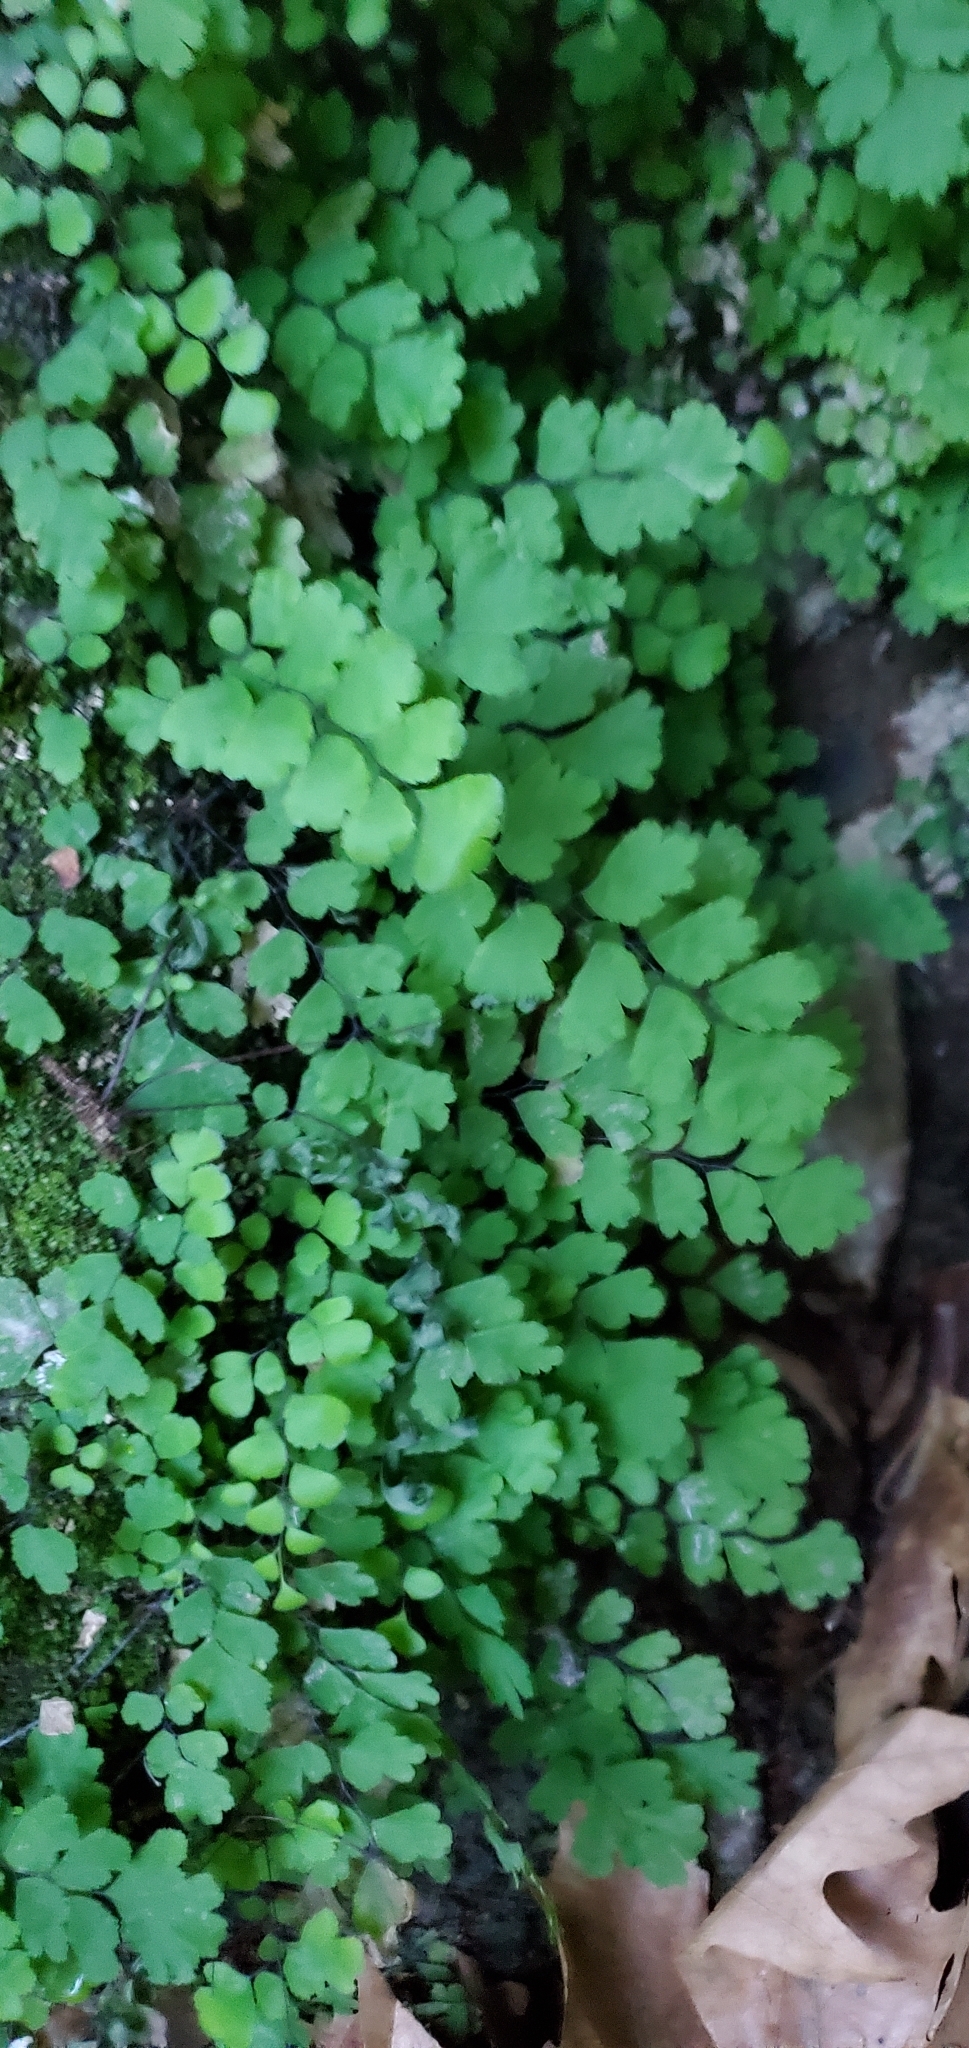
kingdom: Plantae
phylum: Tracheophyta
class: Polypodiopsida
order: Polypodiales
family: Pteridaceae
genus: Adiantum
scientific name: Adiantum capillus-veneris
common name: Maidenhair fern
